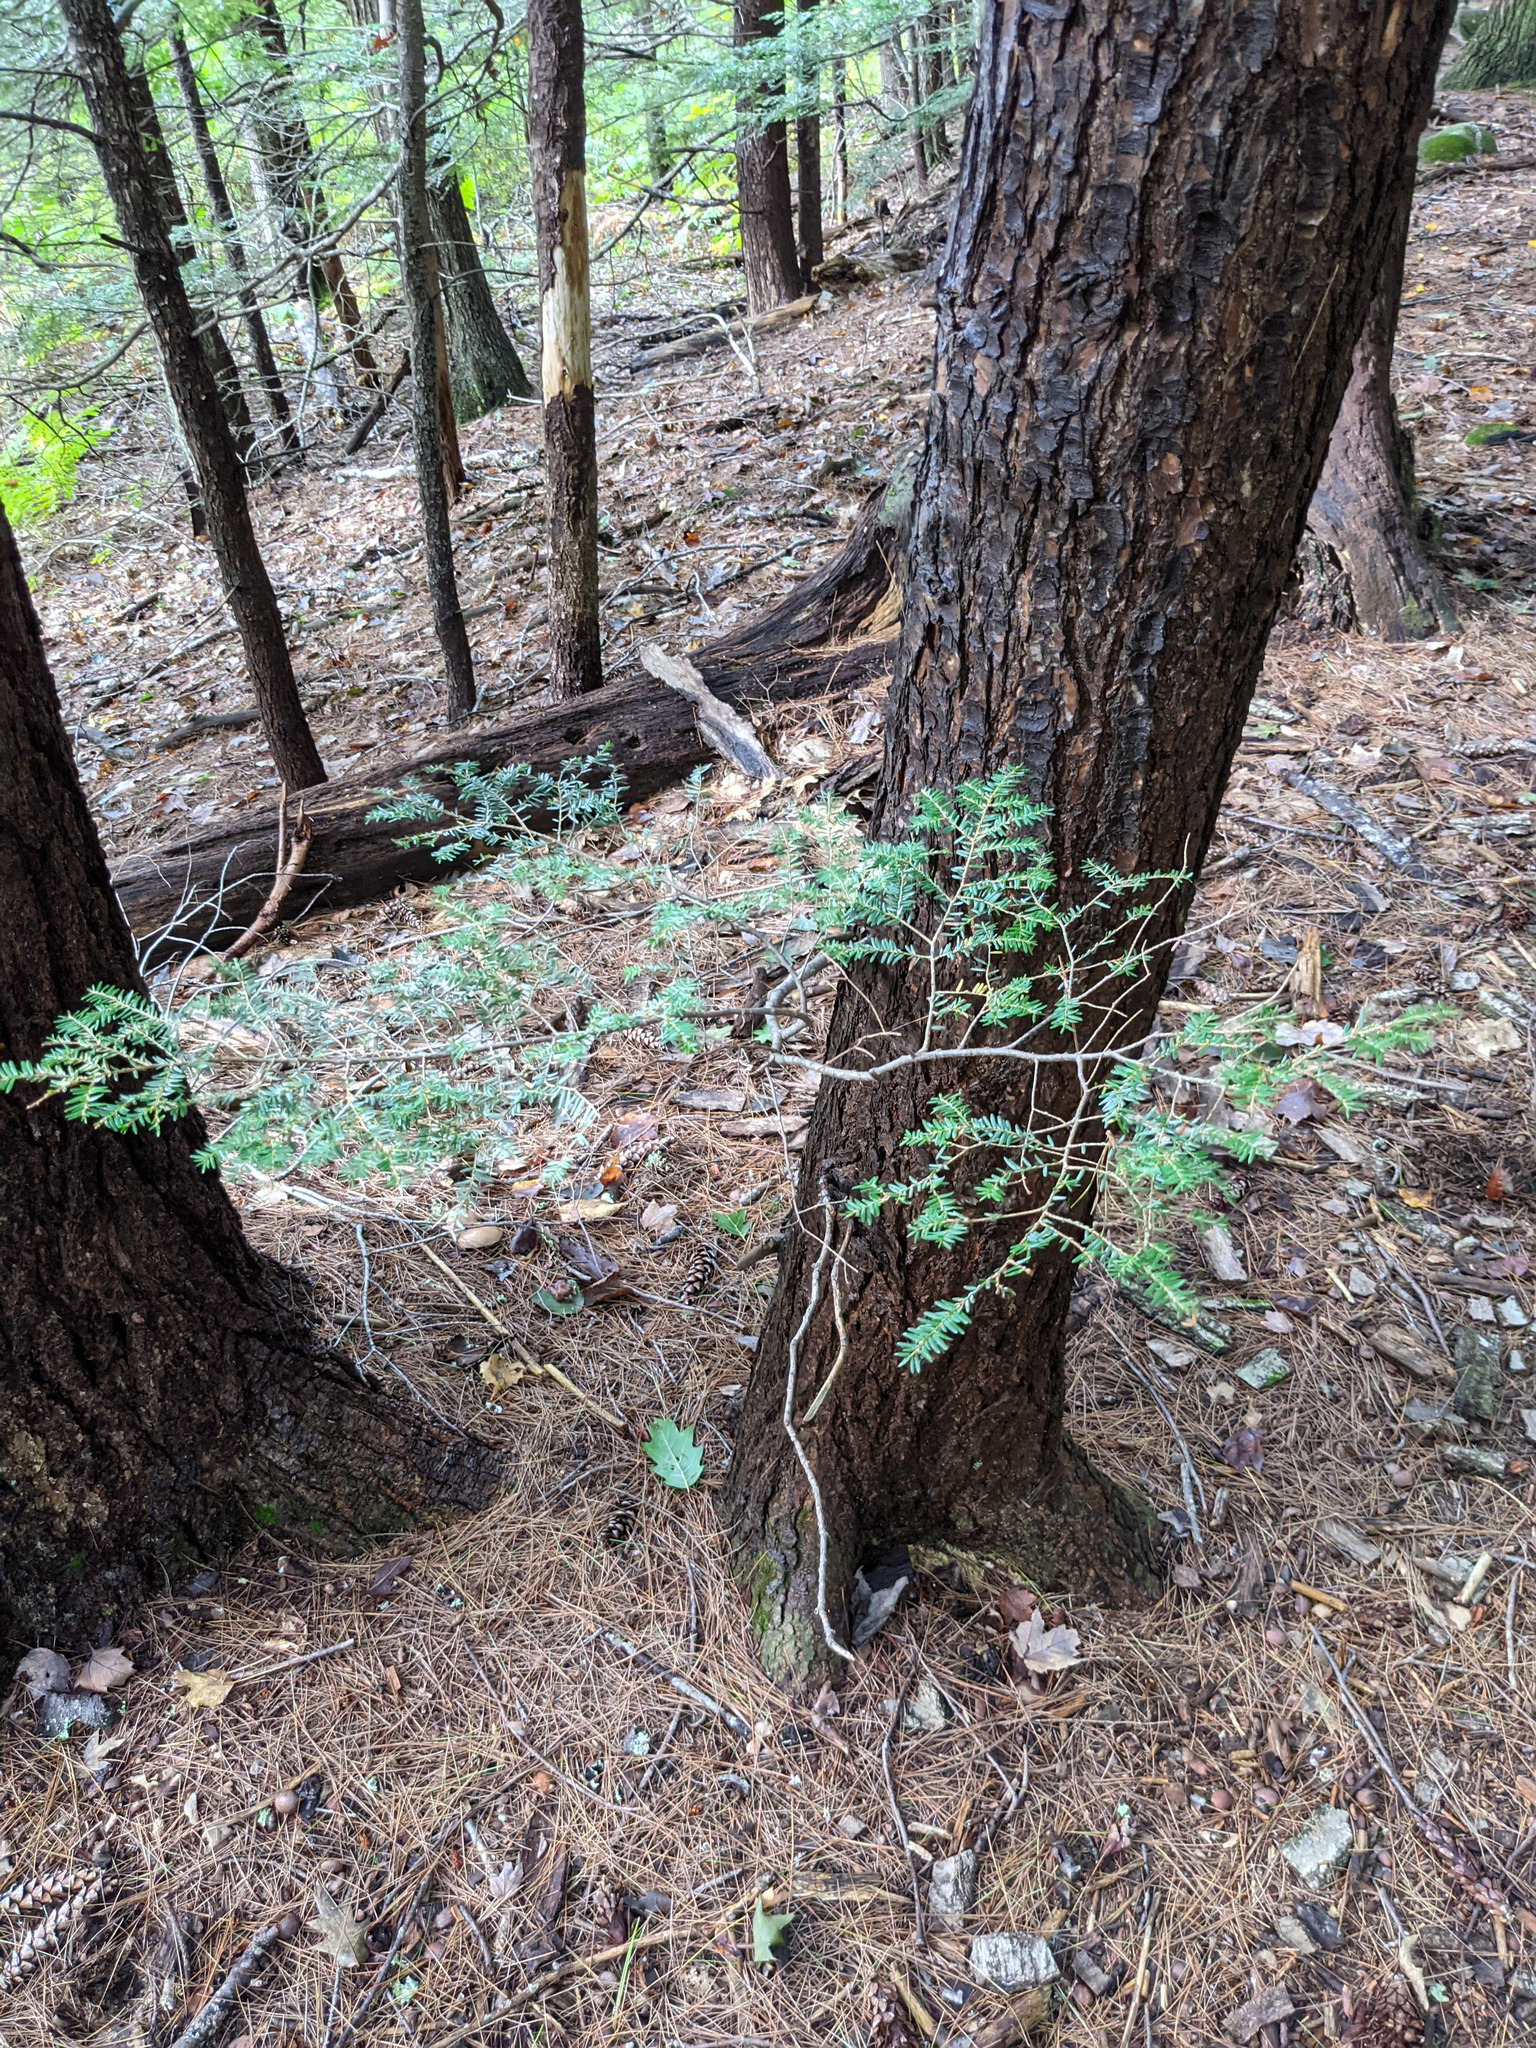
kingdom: Plantae
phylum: Tracheophyta
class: Pinopsida
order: Pinales
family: Pinaceae
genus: Tsuga
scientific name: Tsuga canadensis
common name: Eastern hemlock
